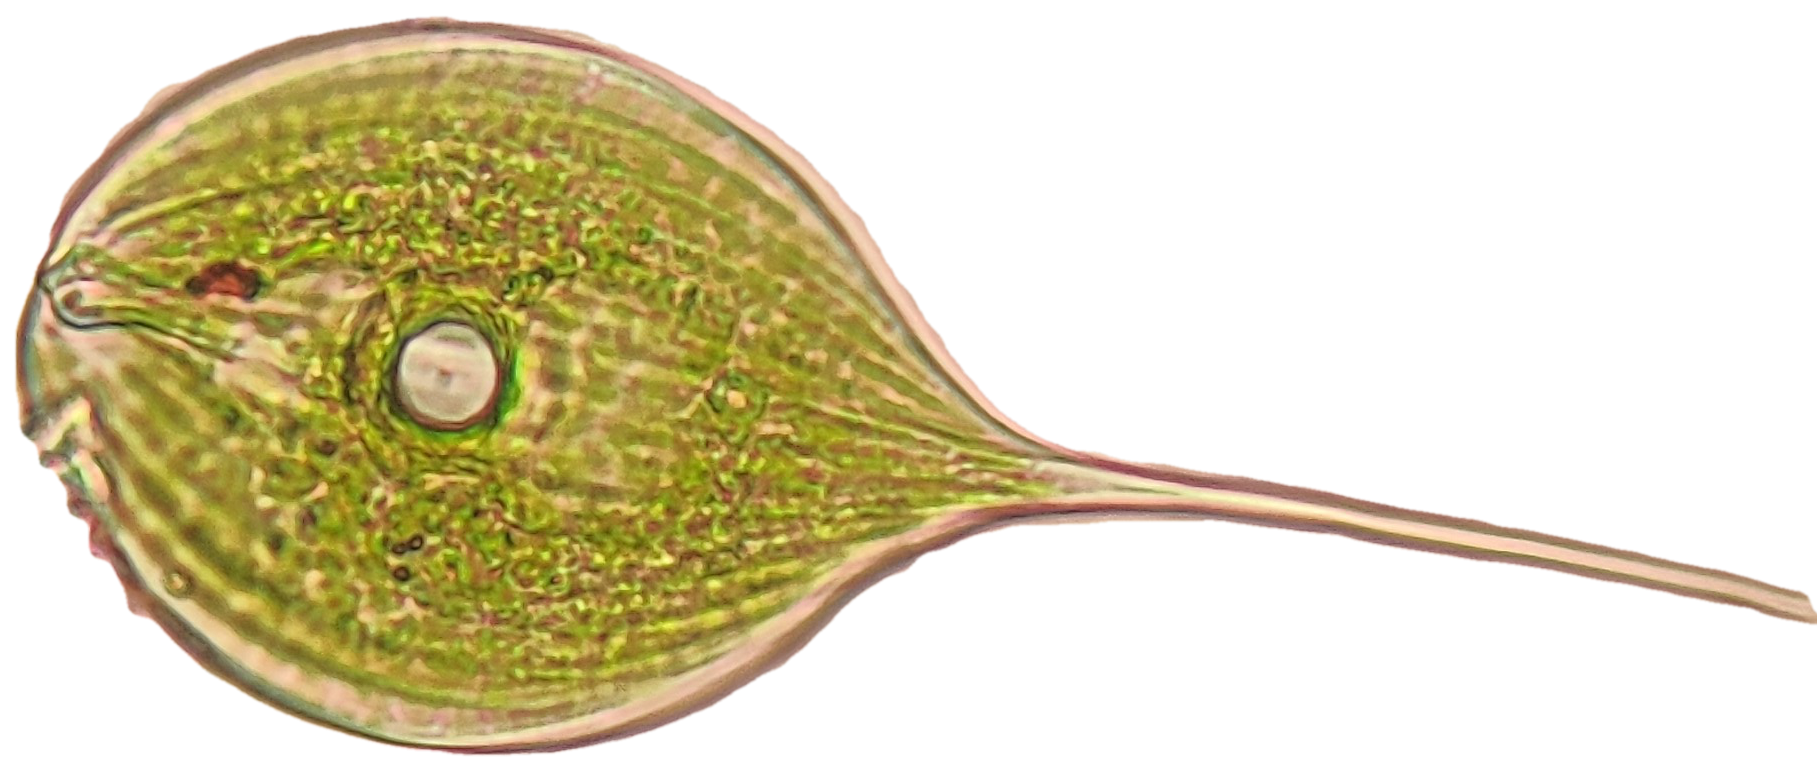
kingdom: Protozoa
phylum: Euglenozoa
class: Euglenoidea
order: Euglenida
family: Phacidae
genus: Phacus
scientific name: Phacus longicauda
